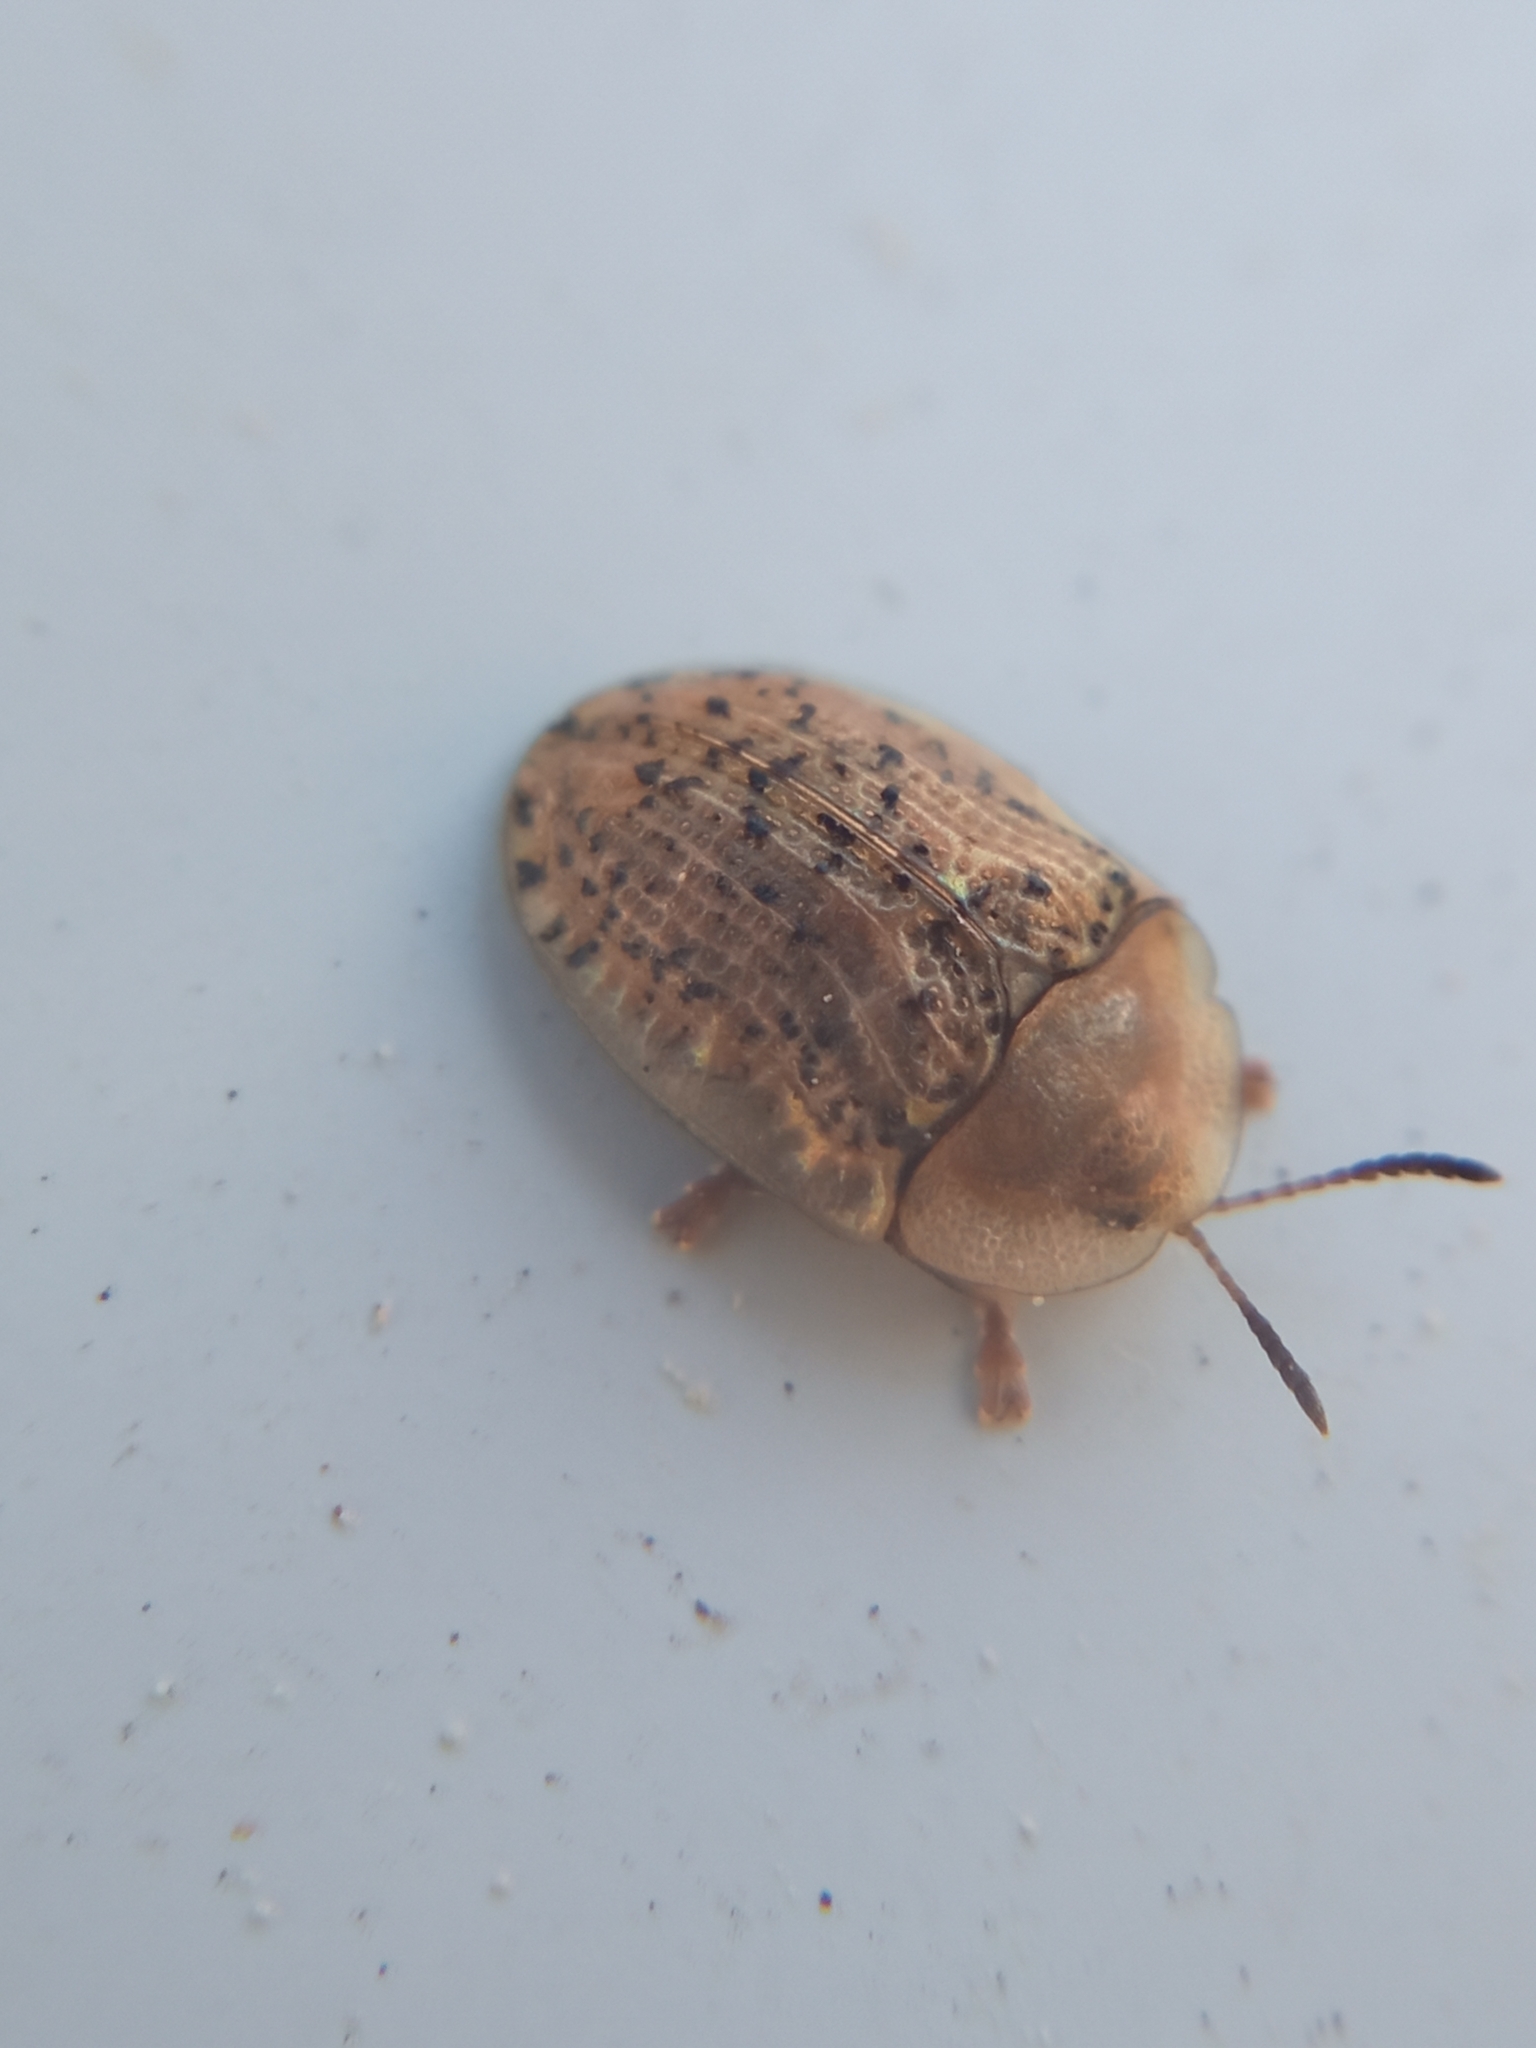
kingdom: Animalia
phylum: Arthropoda
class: Insecta
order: Coleoptera
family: Chrysomelidae
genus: Cassida
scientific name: Cassida nebulosa
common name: Beet tortoise beetle
